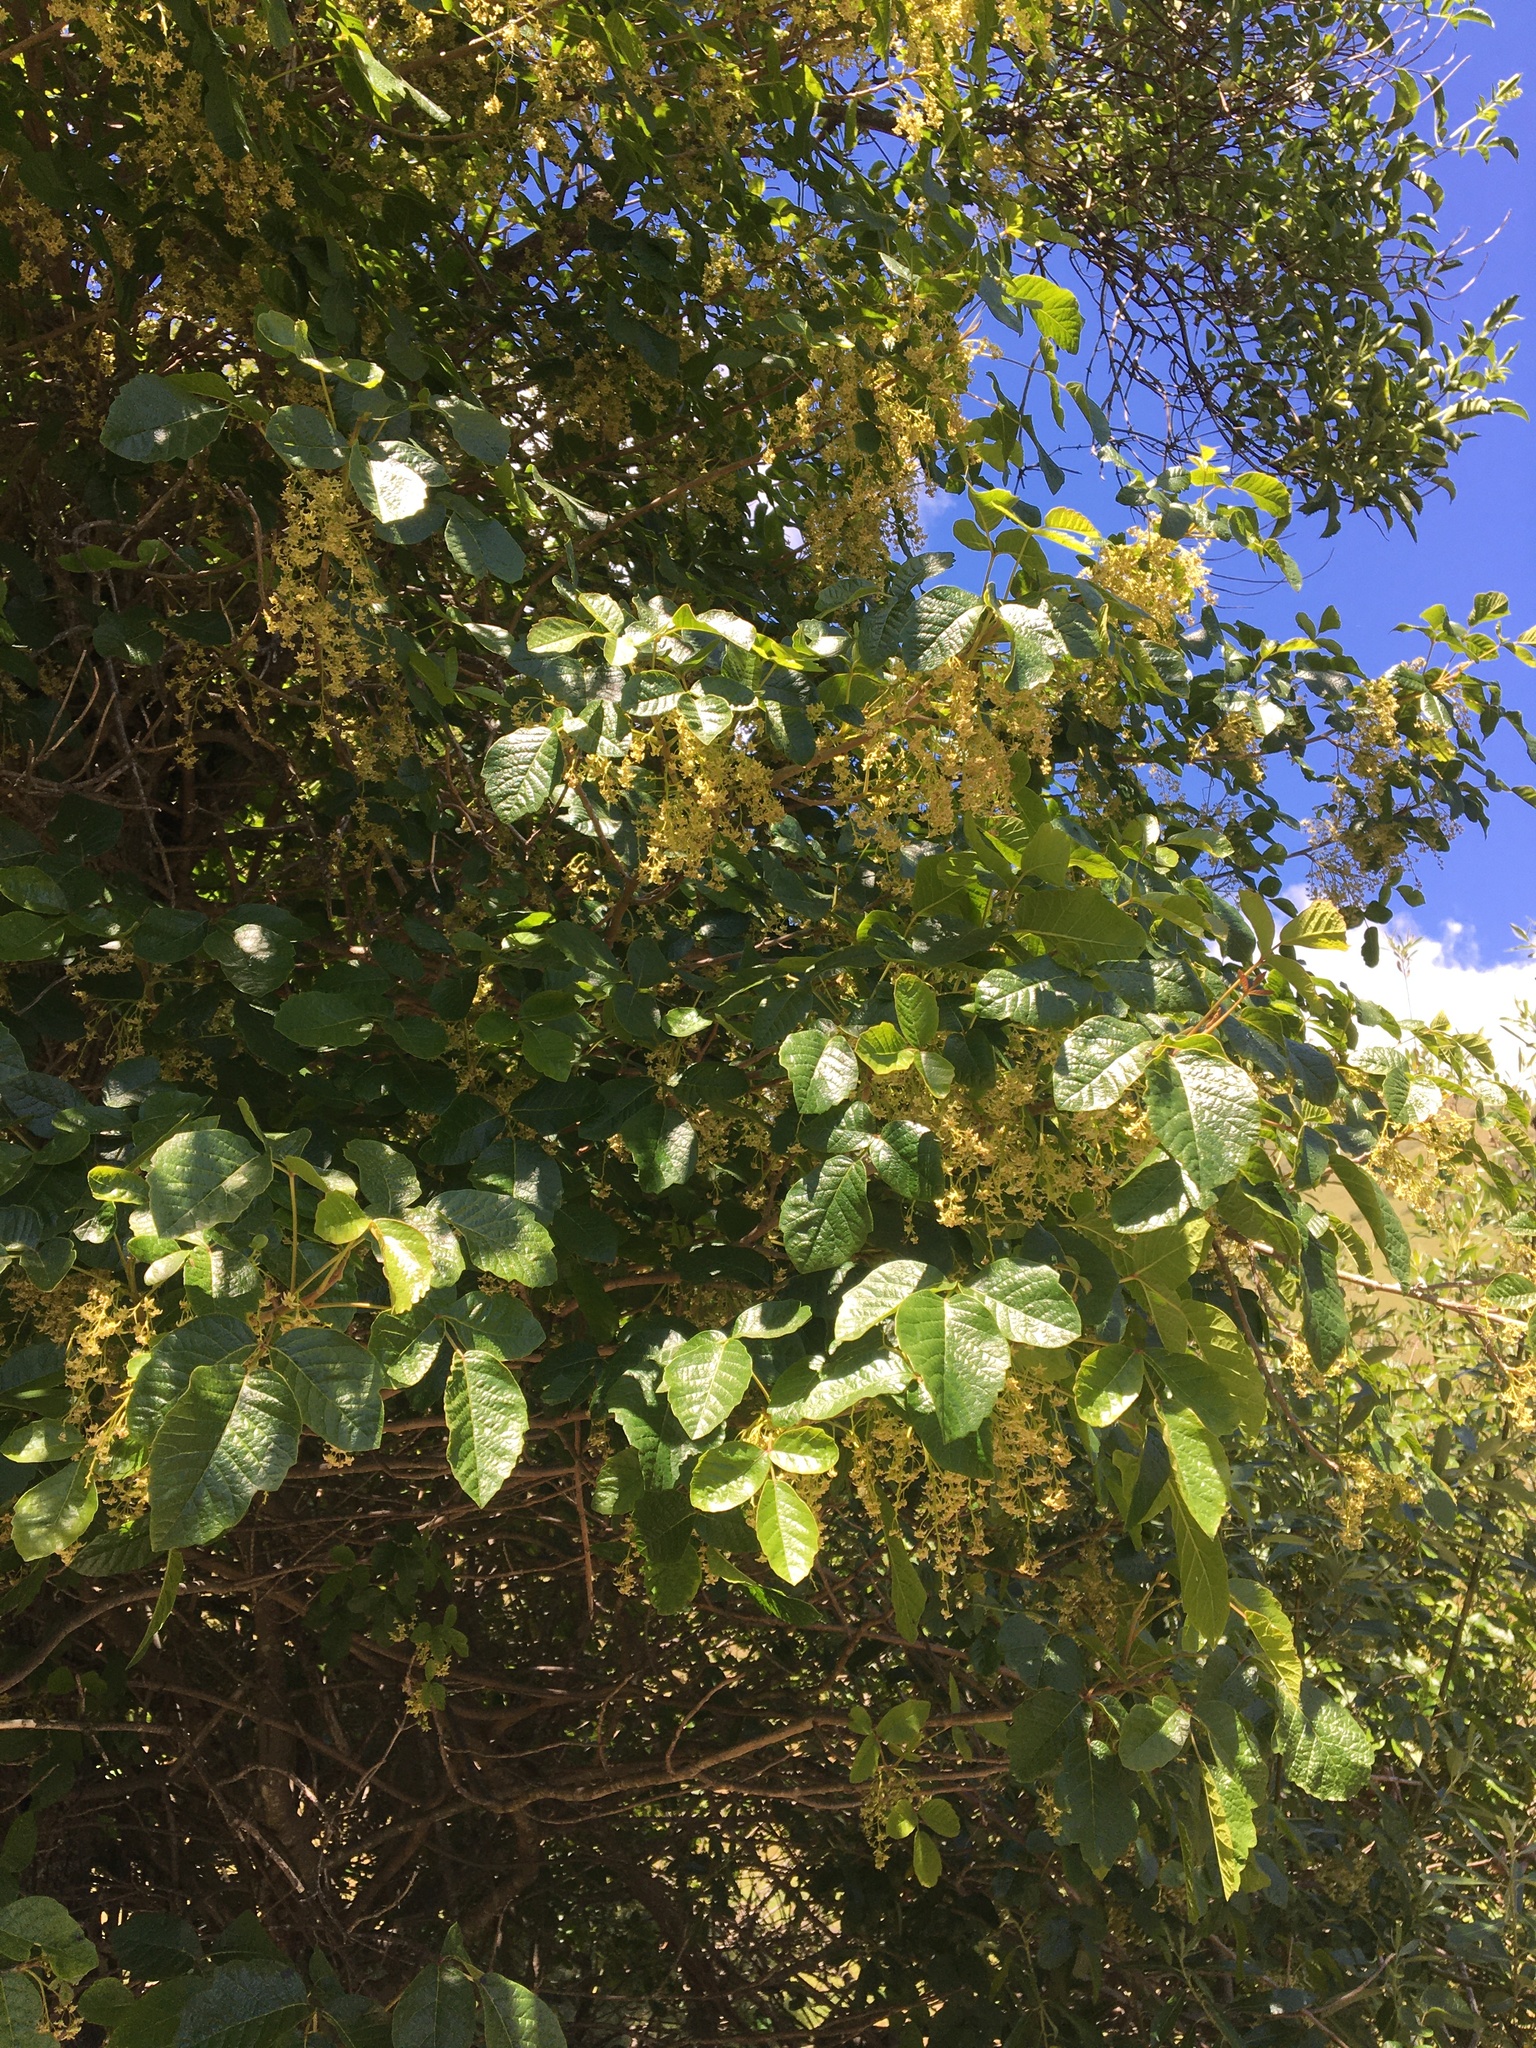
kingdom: Plantae
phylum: Tracheophyta
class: Magnoliopsida
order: Sapindales
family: Anacardiaceae
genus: Toxicodendron
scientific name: Toxicodendron diversilobum
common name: Pacific poison-oak
